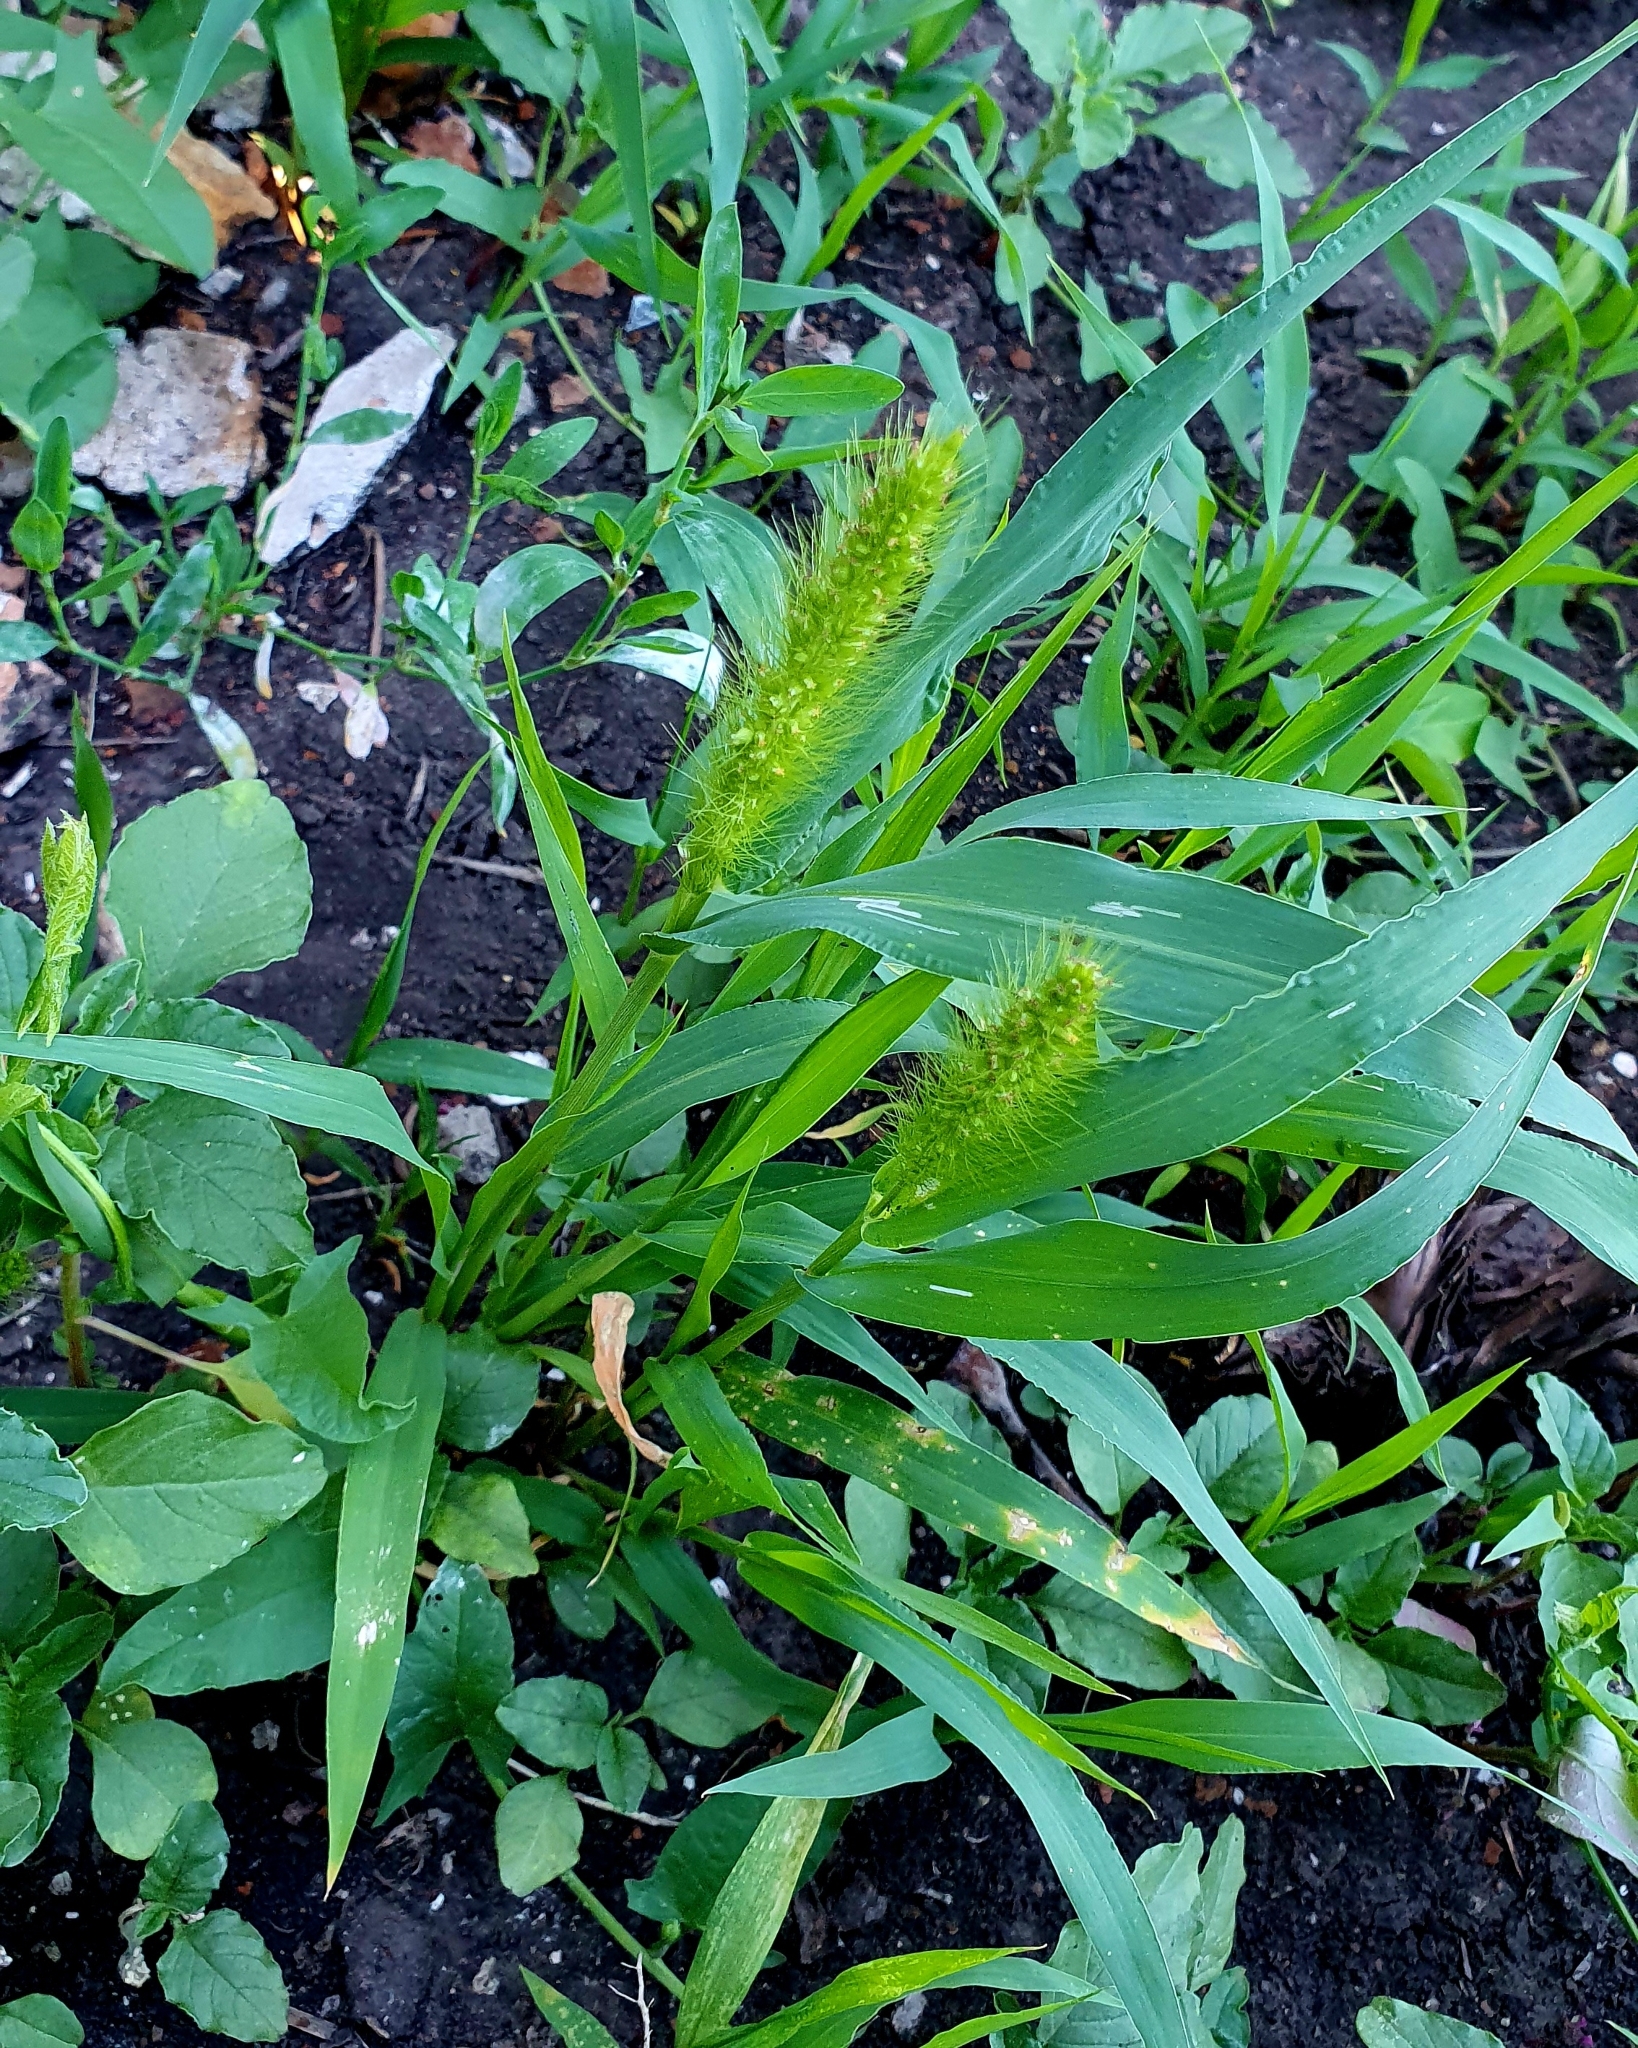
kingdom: Plantae
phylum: Tracheophyta
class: Liliopsida
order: Poales
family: Poaceae
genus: Setaria
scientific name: Setaria viridis
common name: Green bristlegrass
